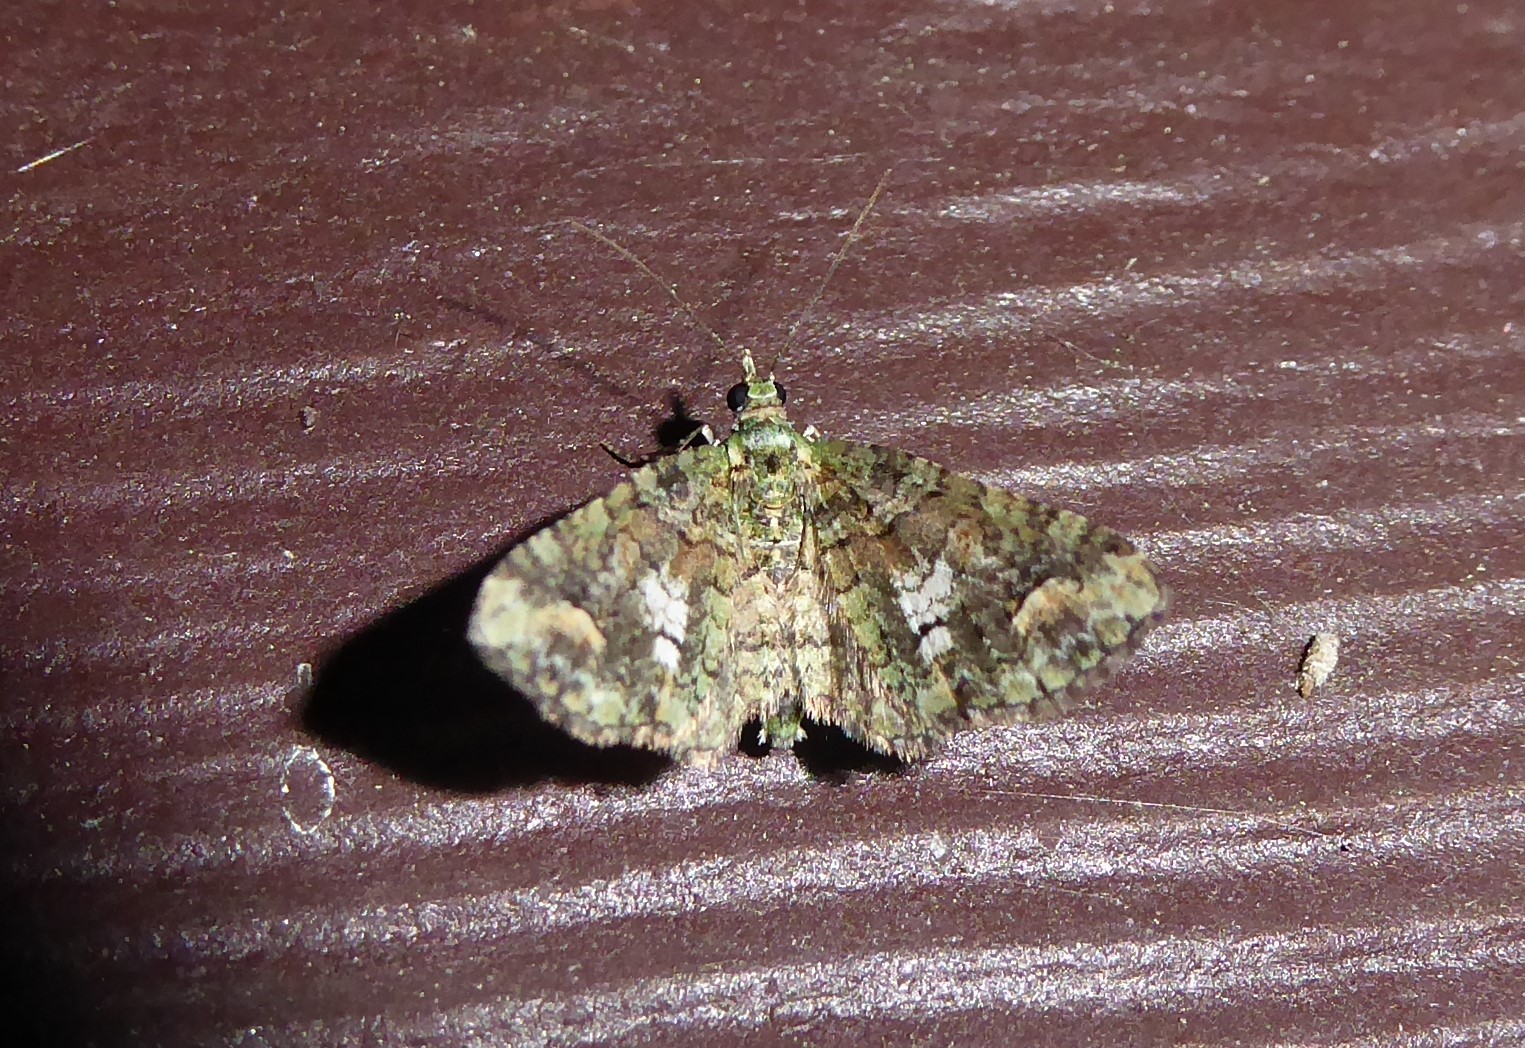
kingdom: Animalia
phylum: Arthropoda
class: Insecta
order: Lepidoptera
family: Geometridae
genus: Idaea
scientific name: Idaea mutanda
